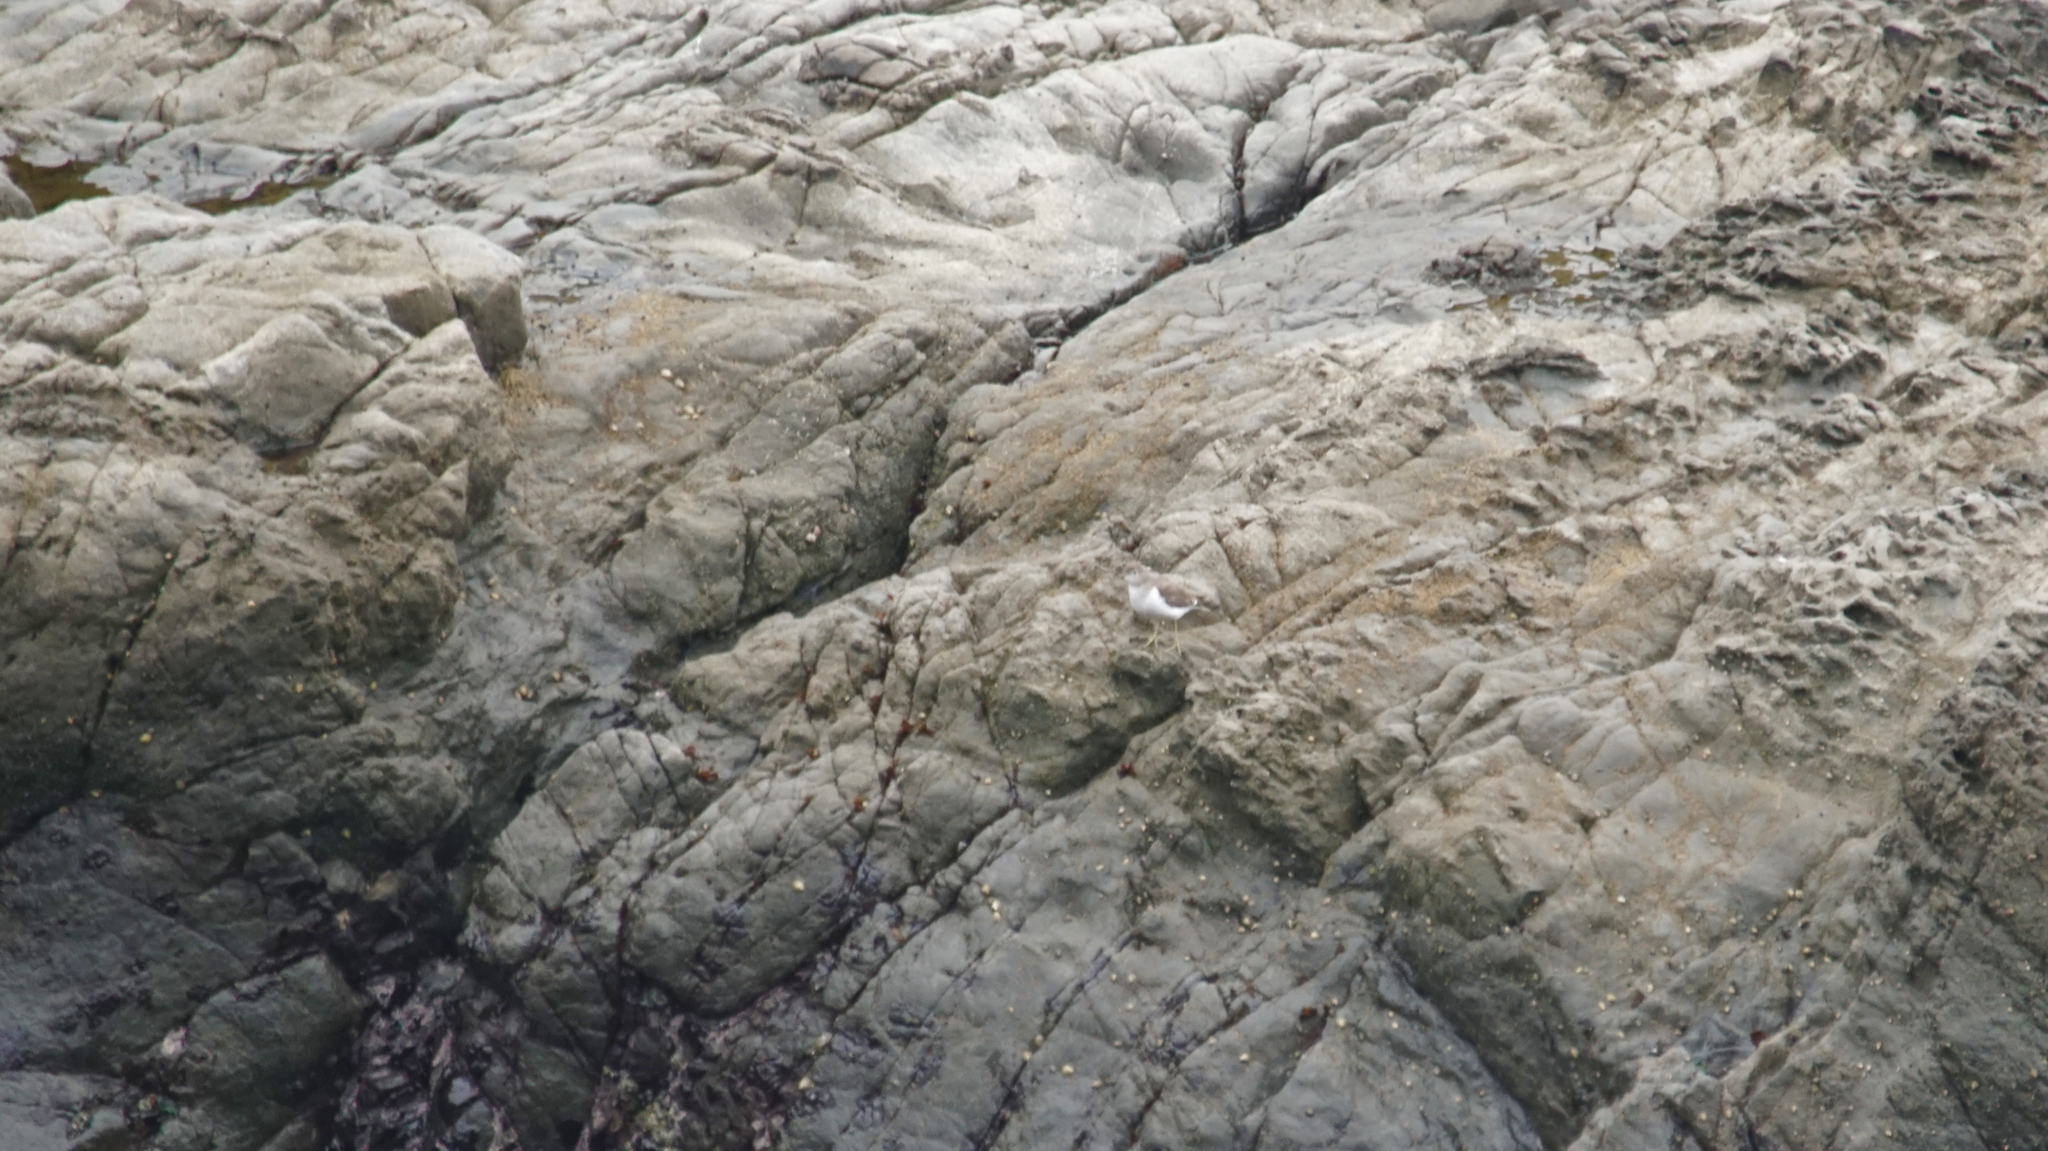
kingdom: Animalia
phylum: Chordata
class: Aves
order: Charadriiformes
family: Scolopacidae
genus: Actitis
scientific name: Actitis macularius
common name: Spotted sandpiper
